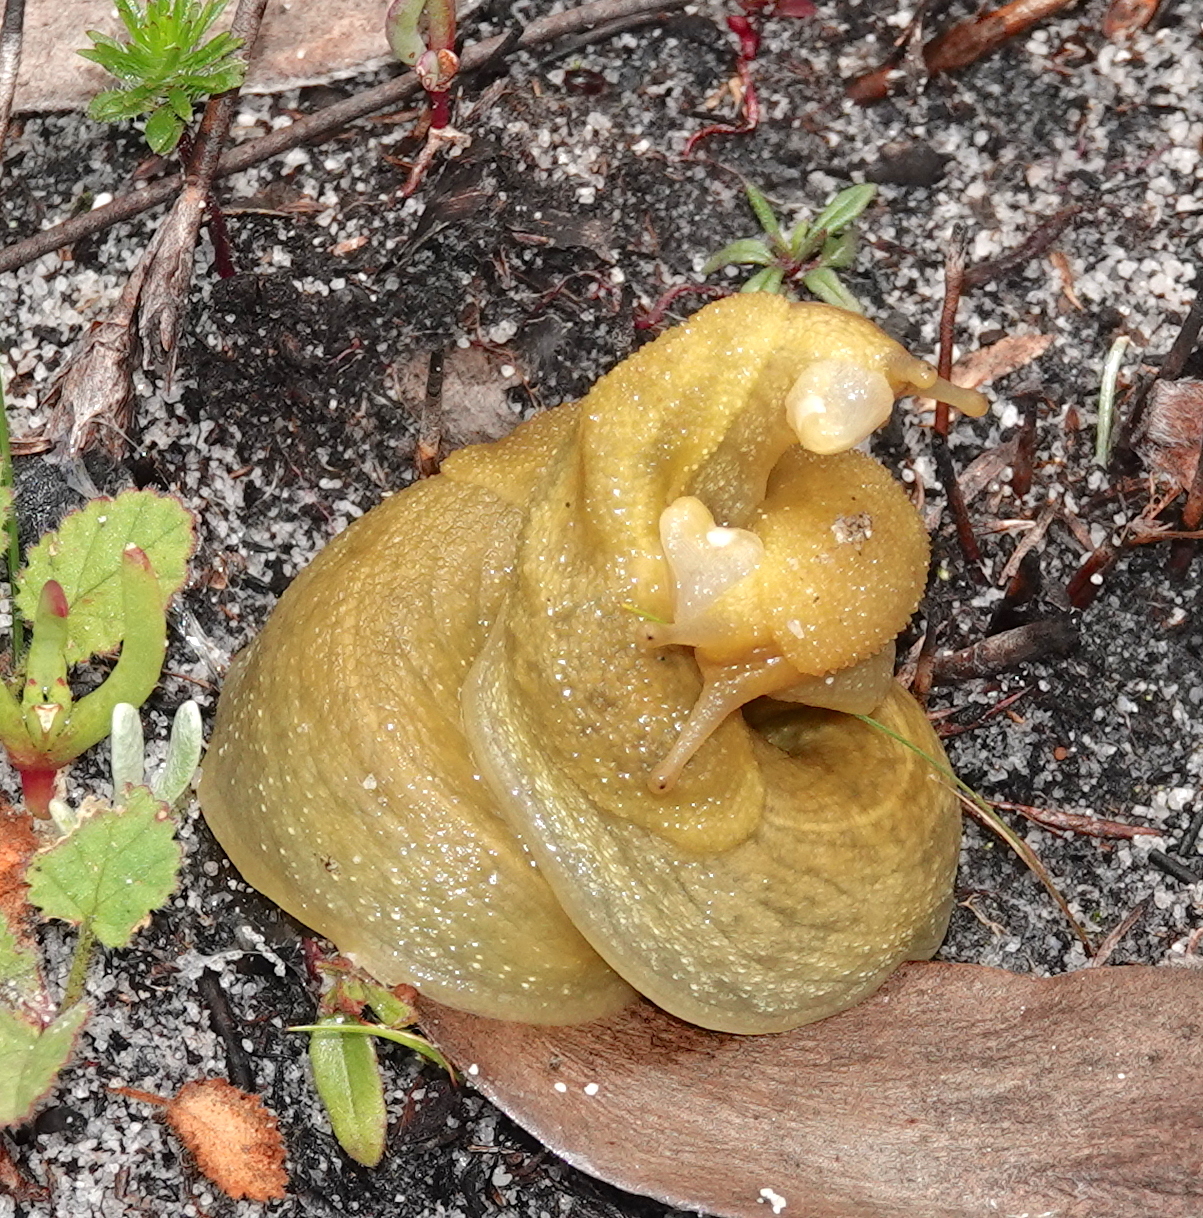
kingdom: Animalia
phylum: Mollusca
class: Gastropoda
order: Stylommatophora
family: Oopeltidae
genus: Oopelta
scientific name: Oopelta flavescens
